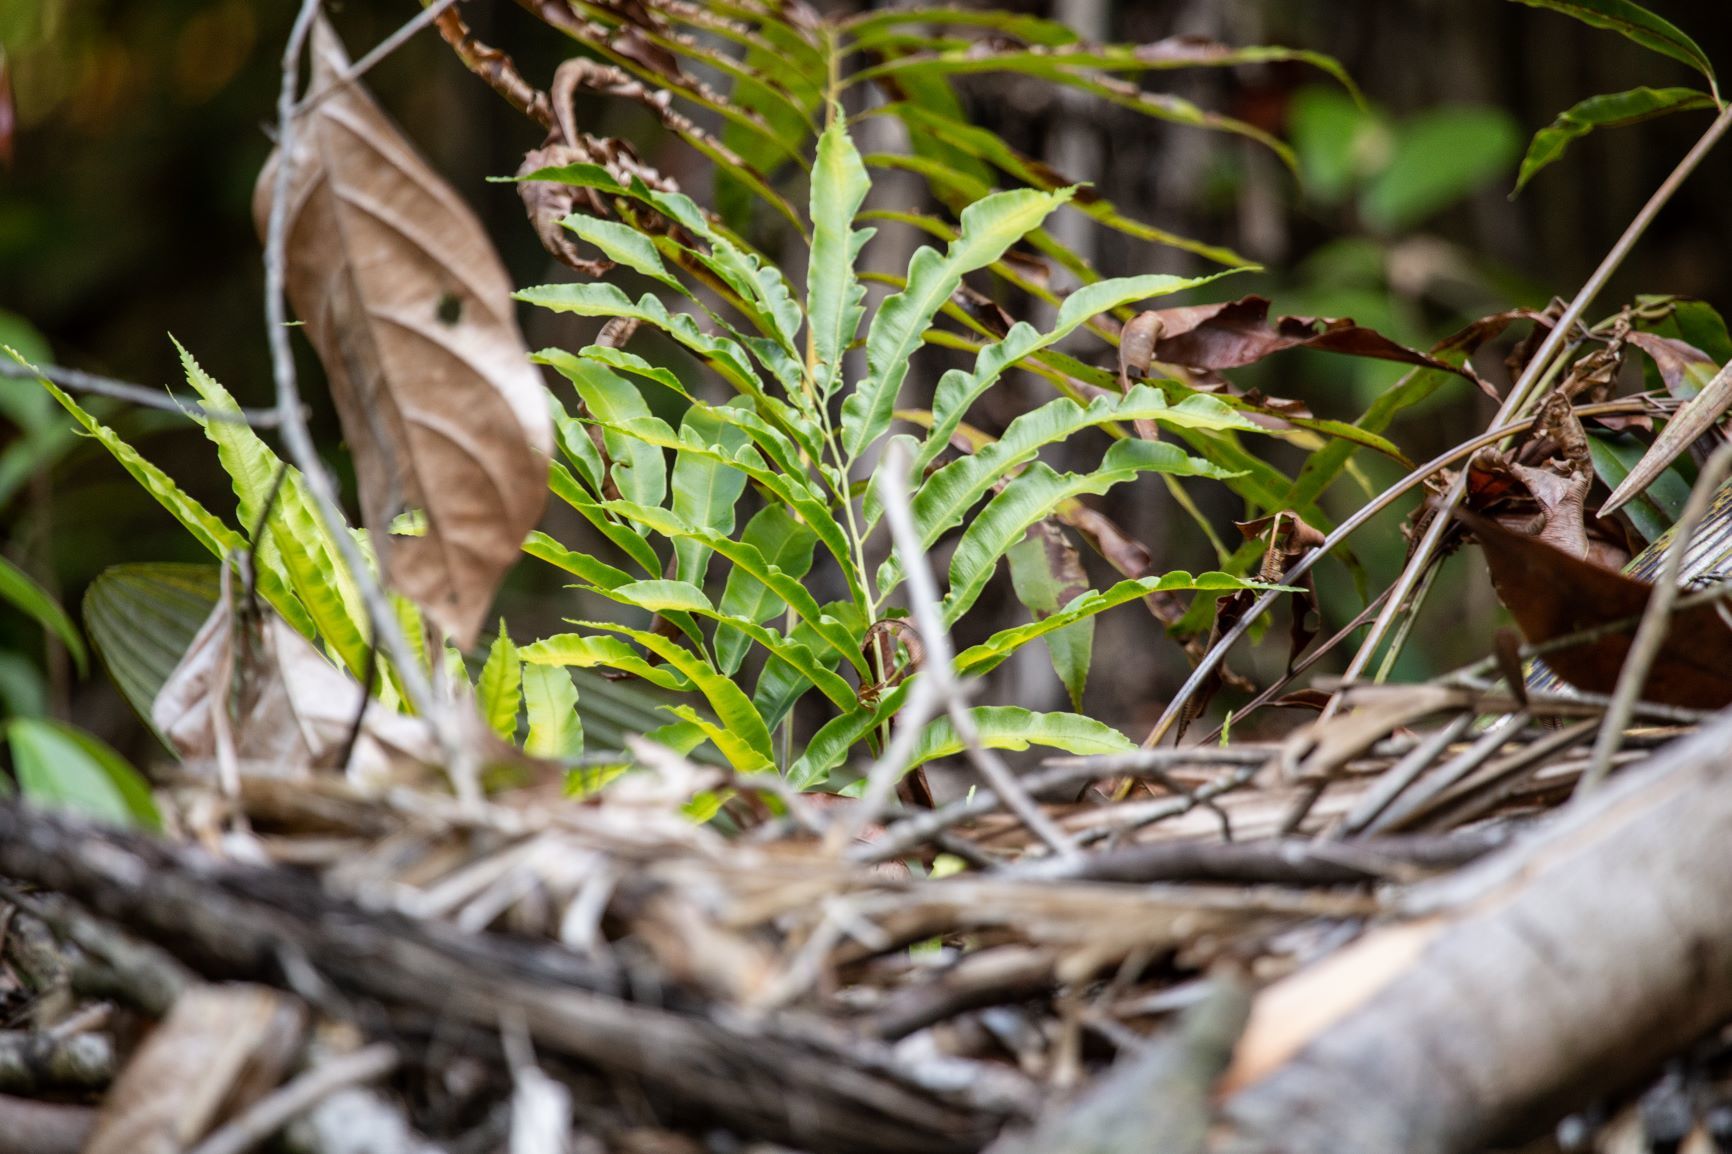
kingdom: Plantae
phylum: Tracheophyta
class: Polypodiopsida
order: Cyatheales
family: Metaxyaceae
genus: Metaxya
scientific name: Metaxya scalaris
